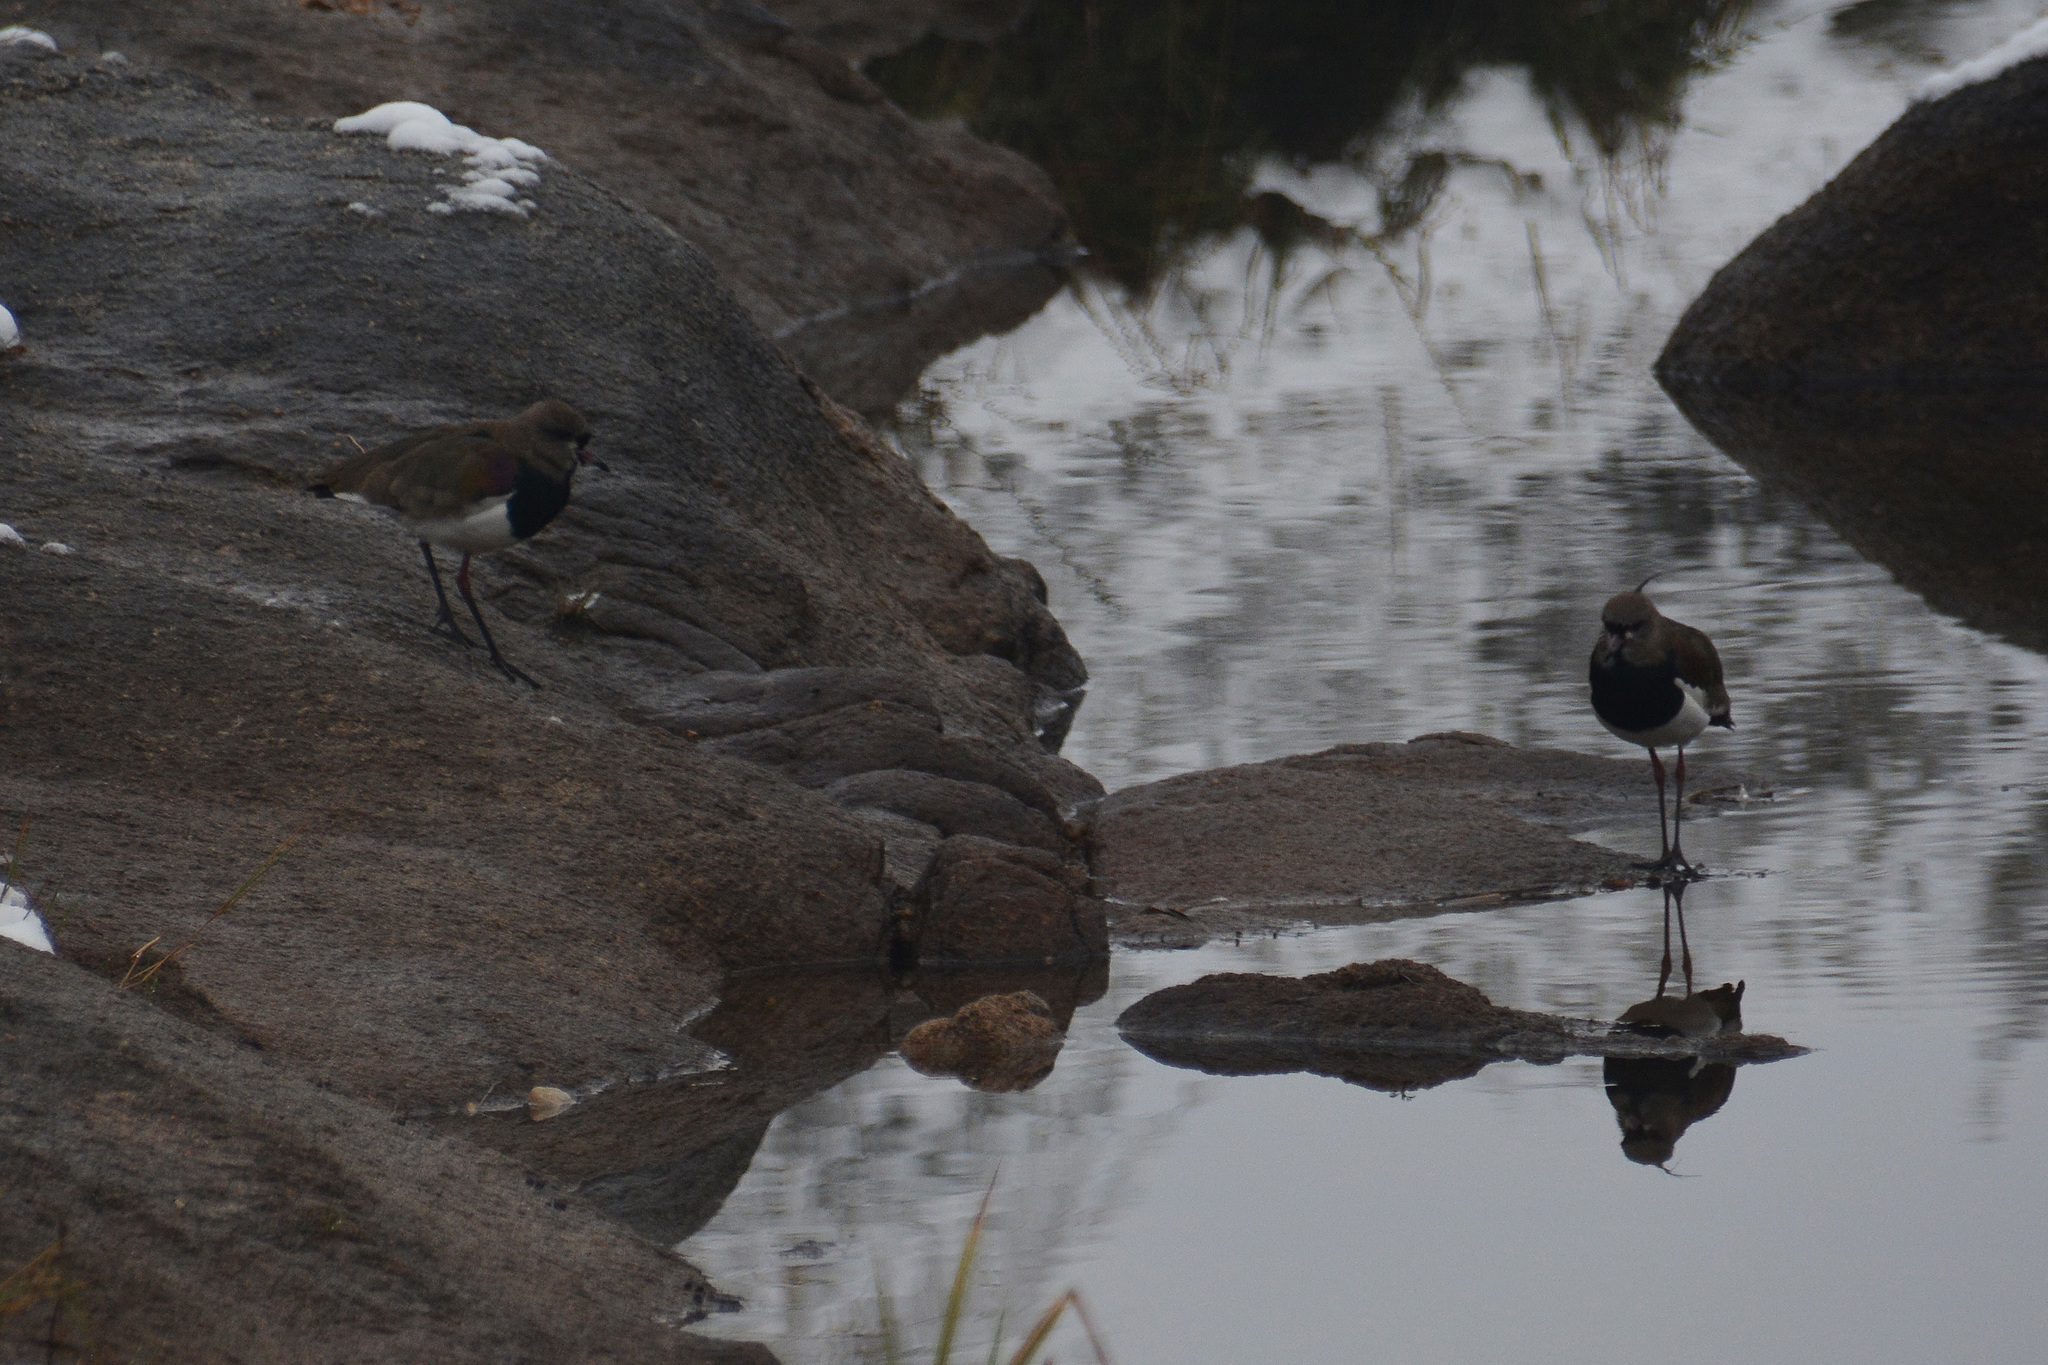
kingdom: Animalia
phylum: Chordata
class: Aves
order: Charadriiformes
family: Charadriidae
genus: Vanellus
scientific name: Vanellus chilensis
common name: Southern lapwing
